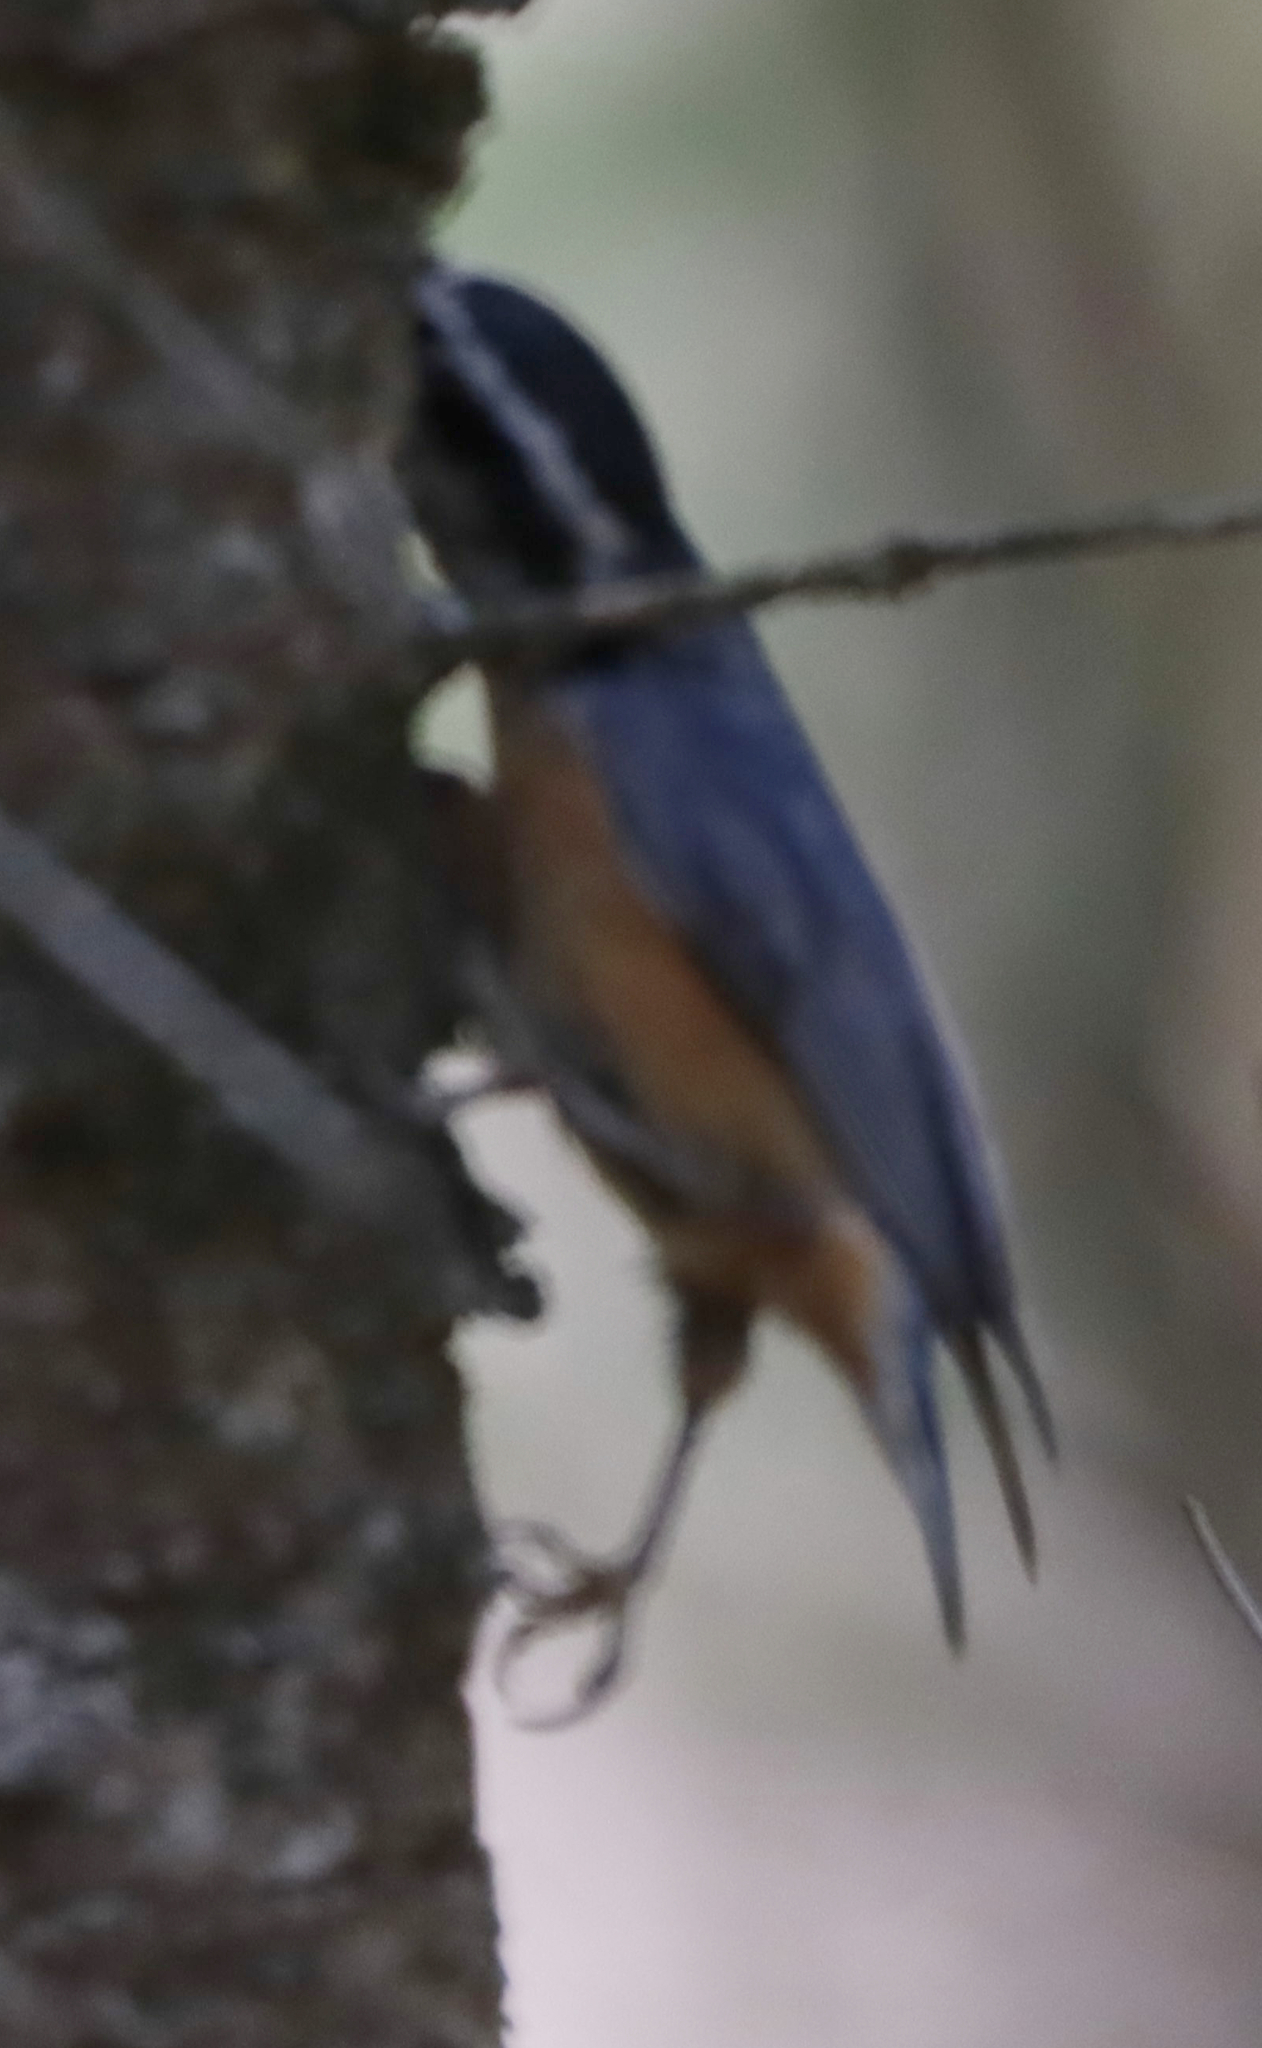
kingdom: Animalia
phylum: Chordata
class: Aves
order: Passeriformes
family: Sittidae
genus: Sitta
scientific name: Sitta canadensis
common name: Red-breasted nuthatch
